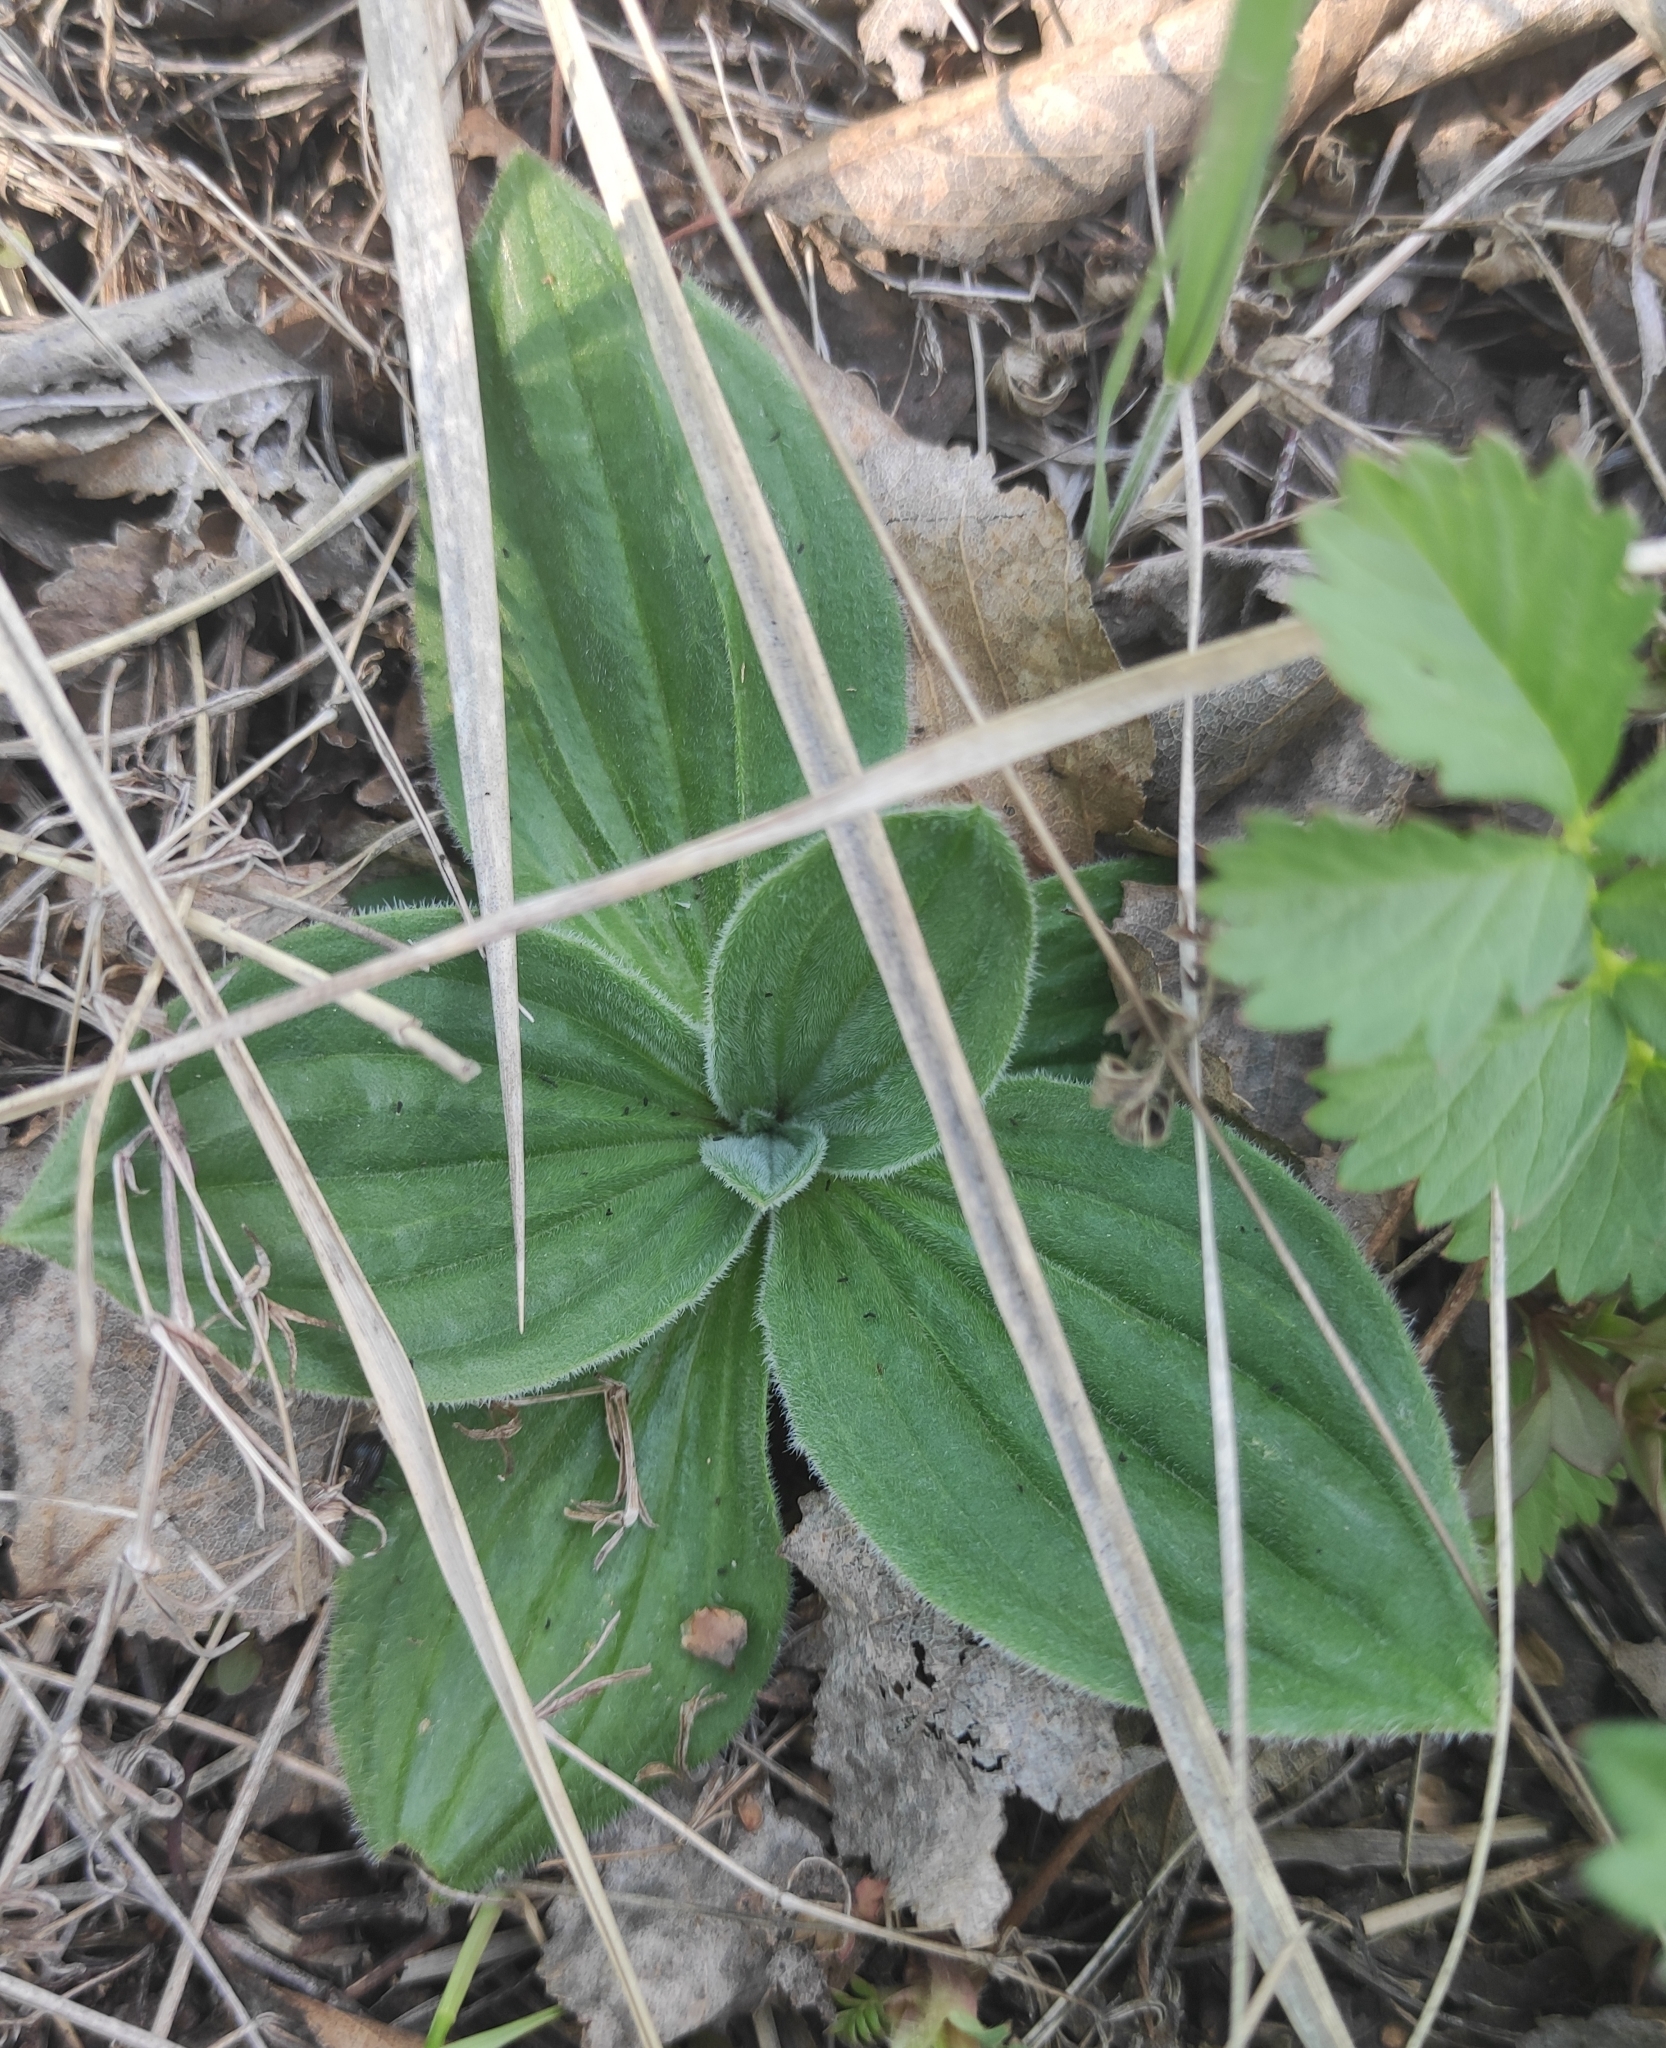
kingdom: Plantae
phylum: Tracheophyta
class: Magnoliopsida
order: Lamiales
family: Plantaginaceae
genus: Plantago
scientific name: Plantago media
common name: Hoary plantain
